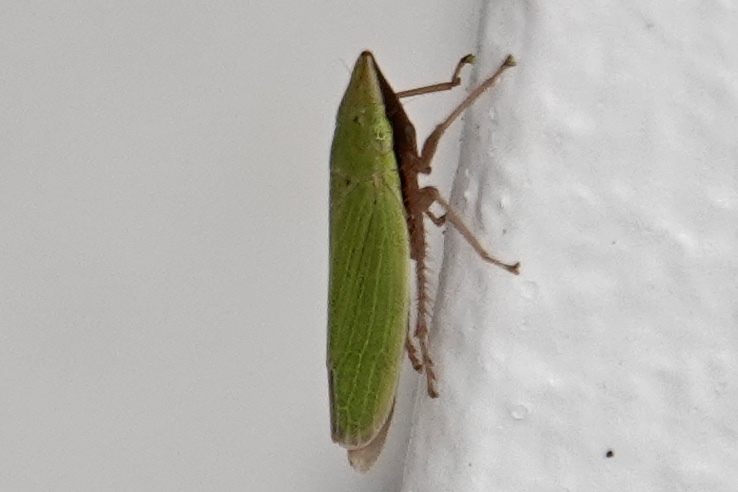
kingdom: Animalia
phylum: Arthropoda
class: Insecta
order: Hemiptera
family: Cicadellidae
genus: Draeculacephala
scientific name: Draeculacephala balli
